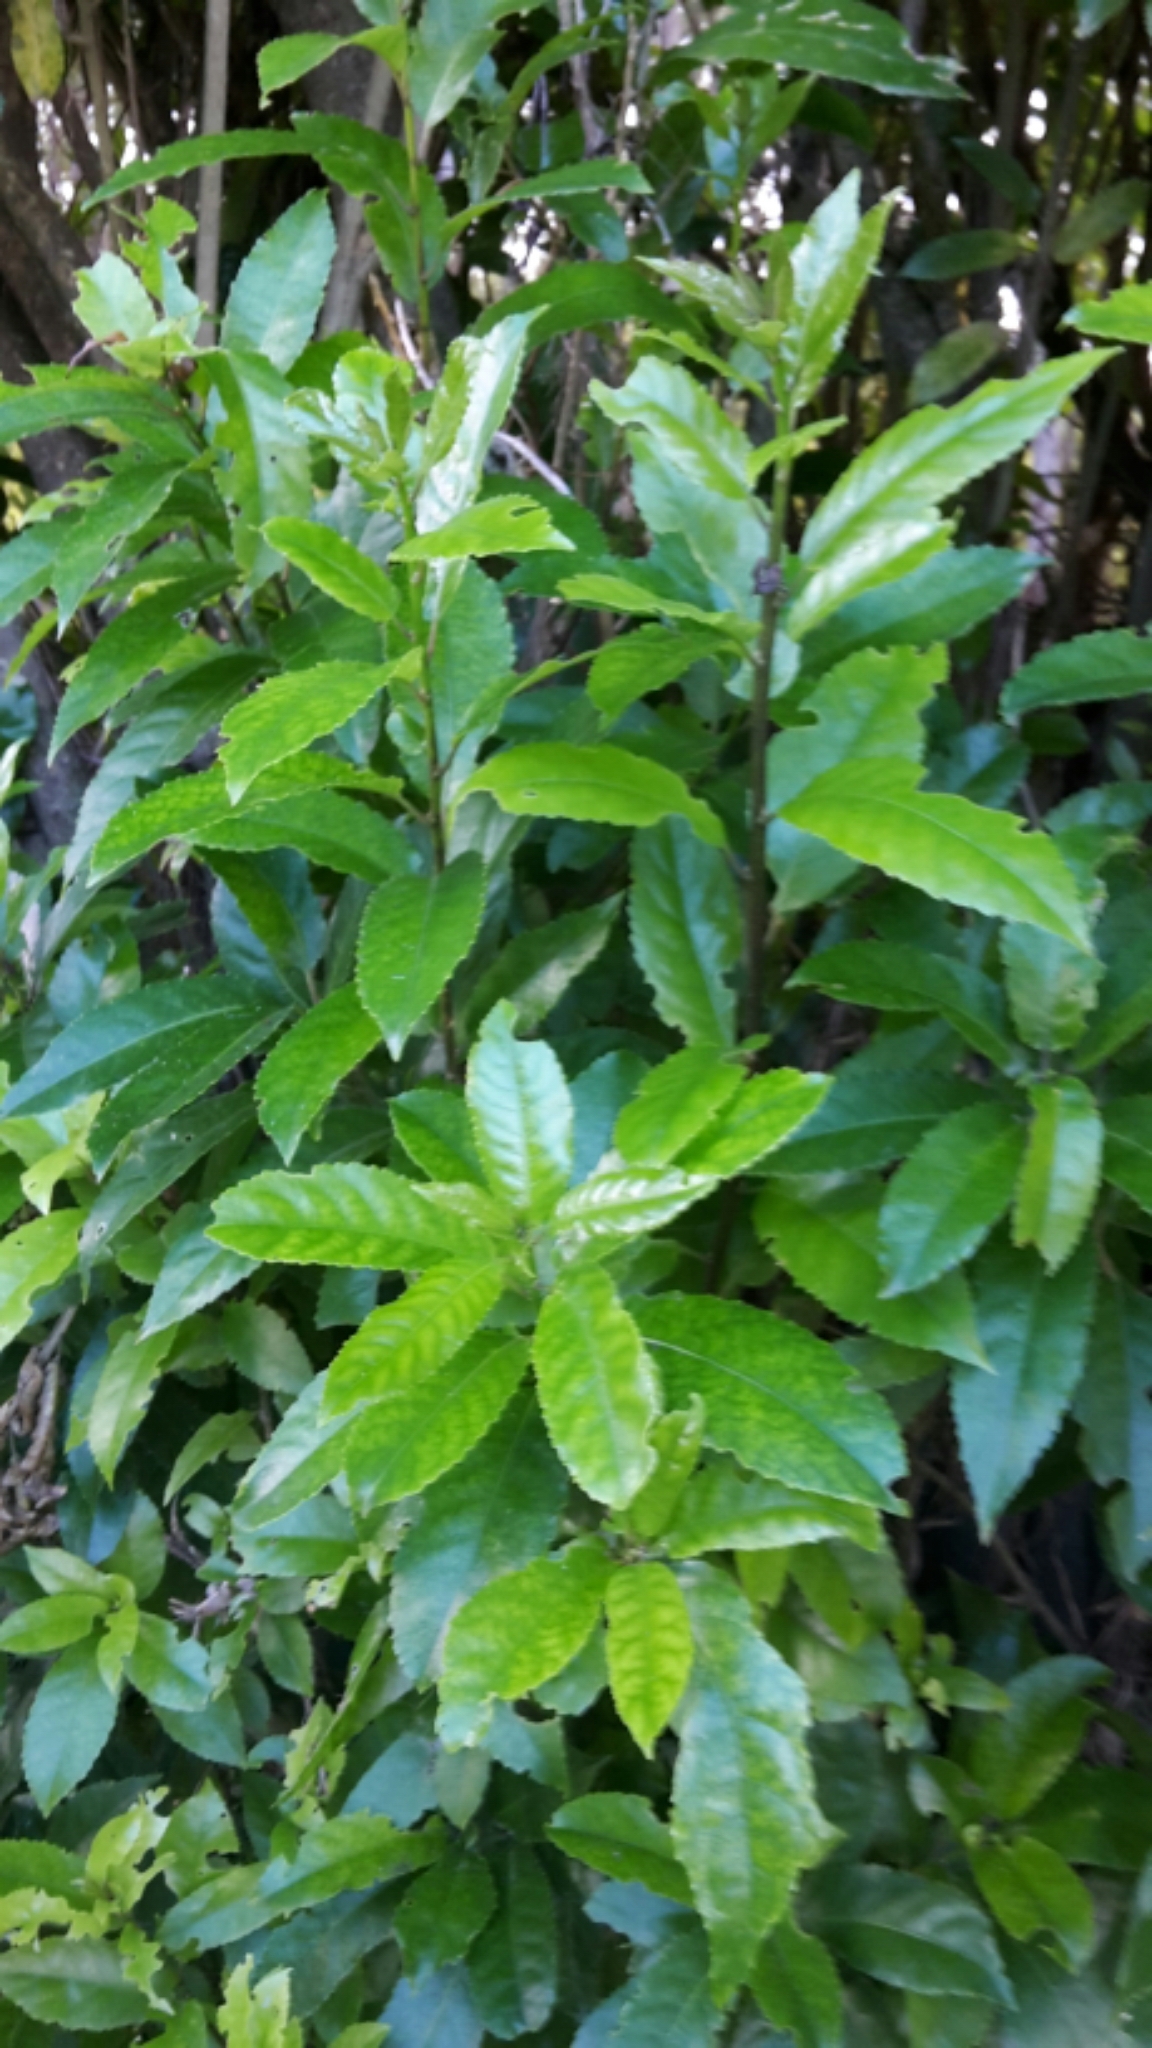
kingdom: Plantae
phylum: Tracheophyta
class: Magnoliopsida
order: Malpighiales
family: Violaceae
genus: Melicytus
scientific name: Melicytus ramiflorus
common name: Mahoe
